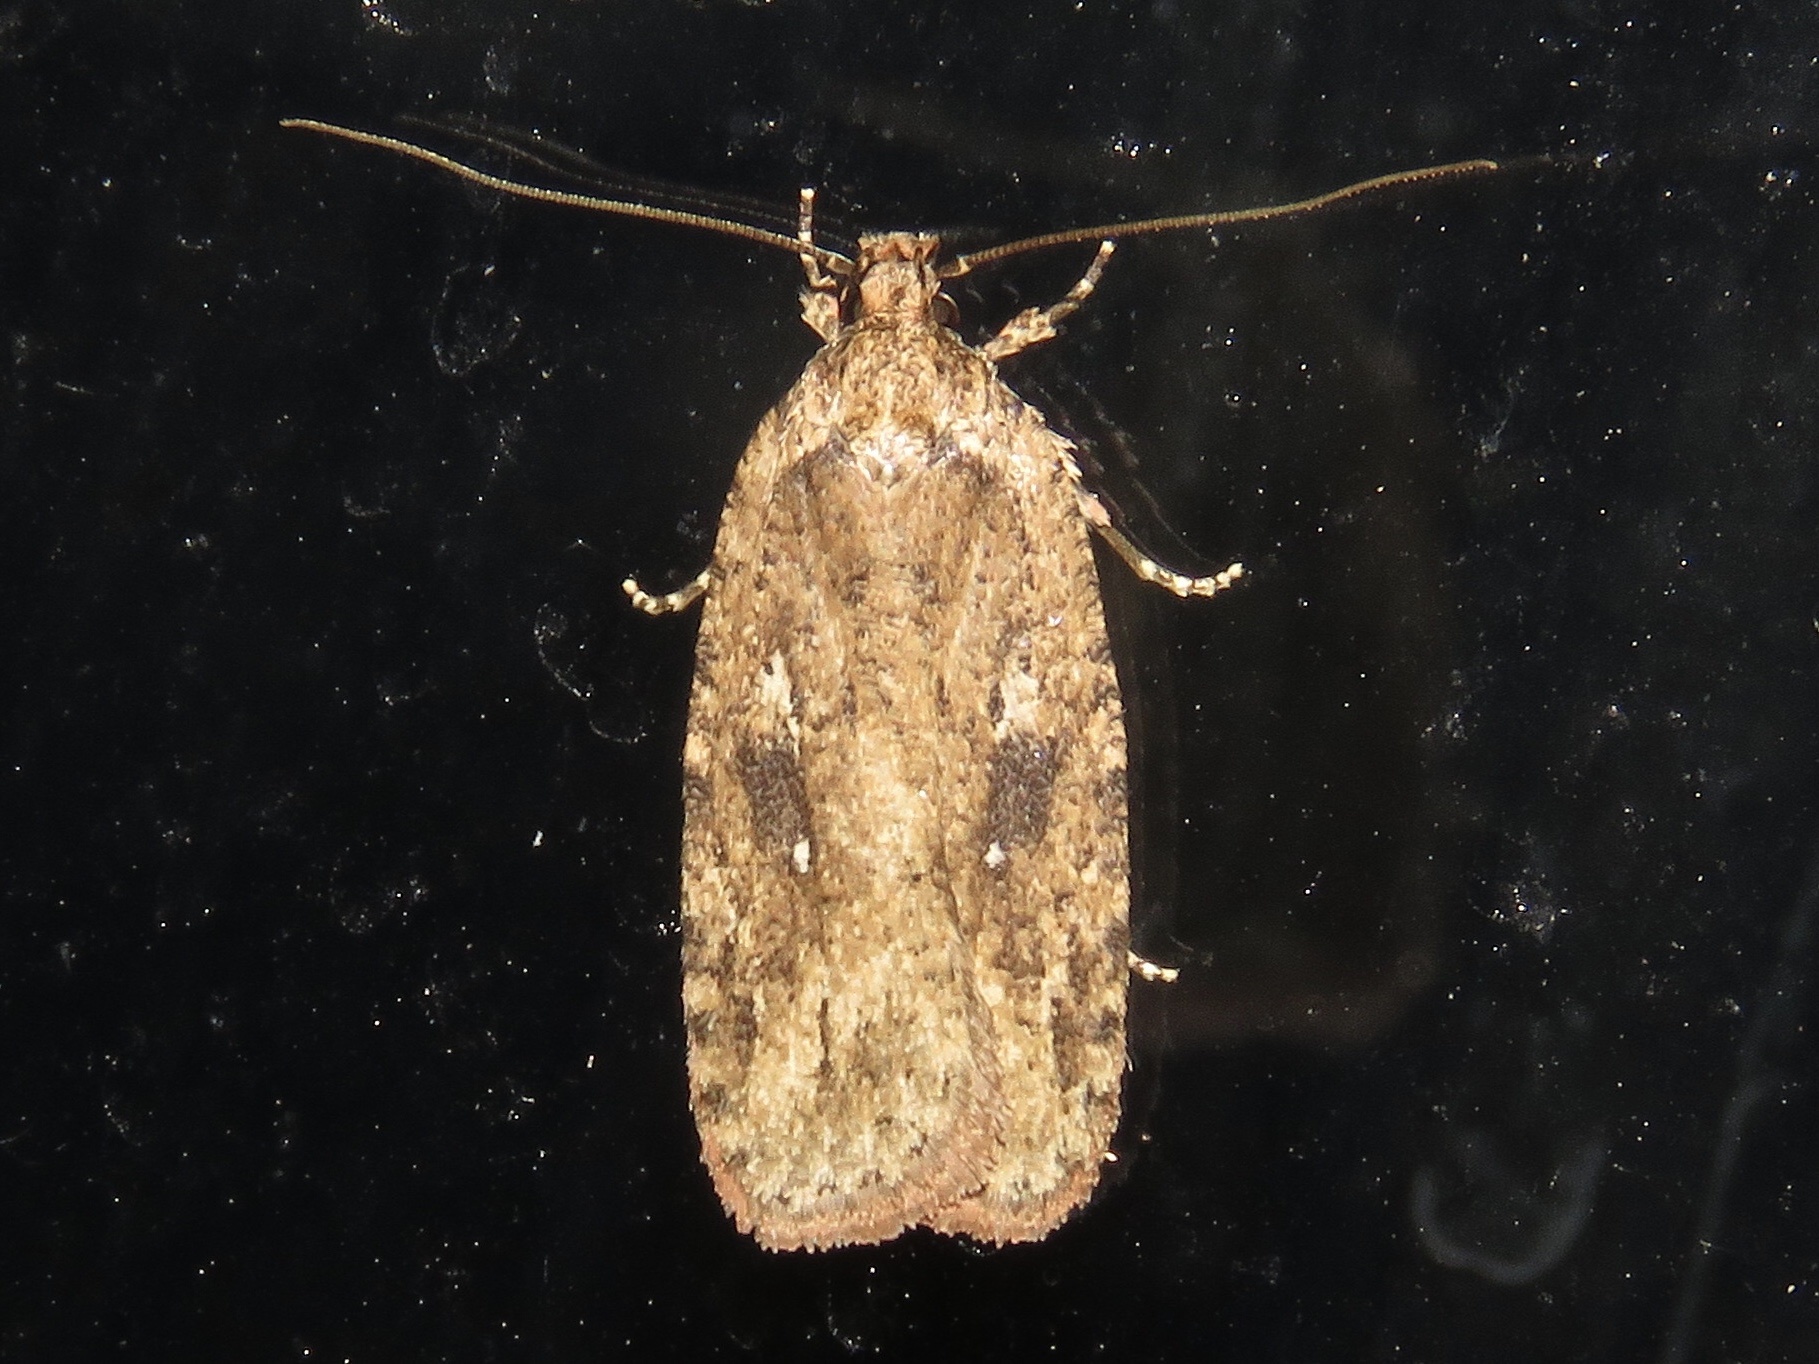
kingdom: Animalia
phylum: Arthropoda
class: Insecta
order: Lepidoptera
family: Depressariidae
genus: Agonopterix
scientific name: Agonopterix pulvipennella
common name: Goldenrod leafffolder
